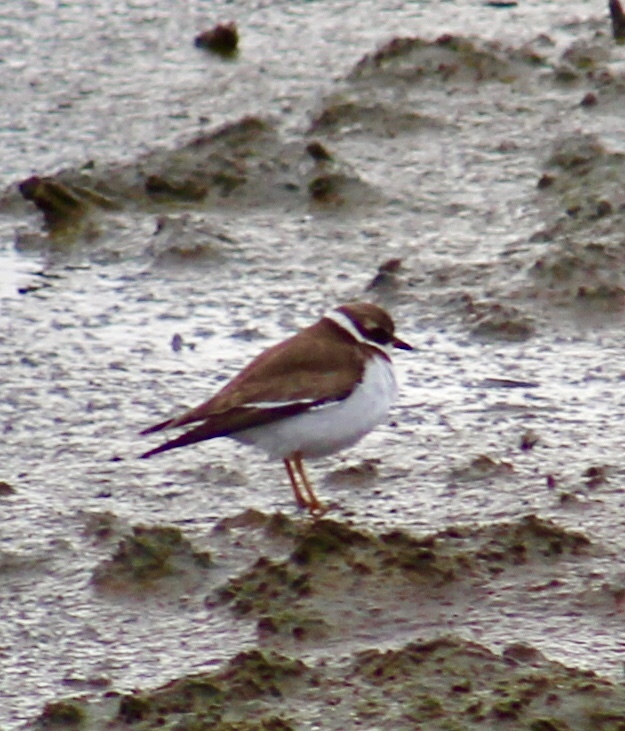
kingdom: Animalia
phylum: Chordata
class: Aves
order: Charadriiformes
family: Charadriidae
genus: Charadrius
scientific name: Charadrius semipalmatus
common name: Semipalmated plover
